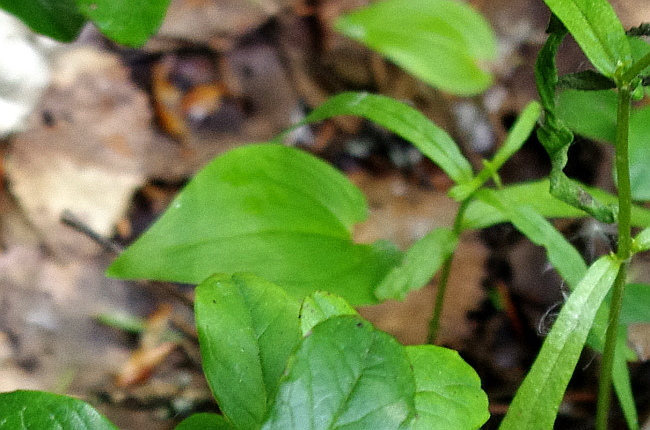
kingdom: Plantae
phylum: Tracheophyta
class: Liliopsida
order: Asparagales
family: Asparagaceae
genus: Maianthemum
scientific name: Maianthemum bifolium
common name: May lily
